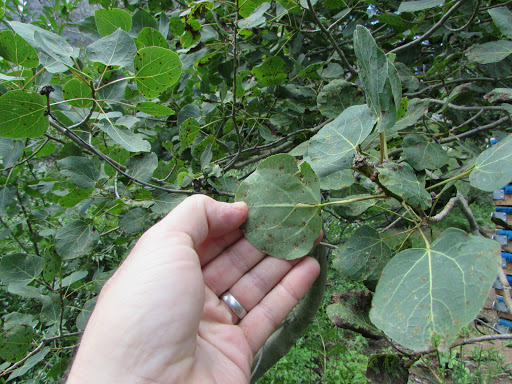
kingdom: Plantae
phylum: Tracheophyta
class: Magnoliopsida
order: Malpighiales
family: Salicaceae
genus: Populus
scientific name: Populus tremuloides
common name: Quaking aspen
